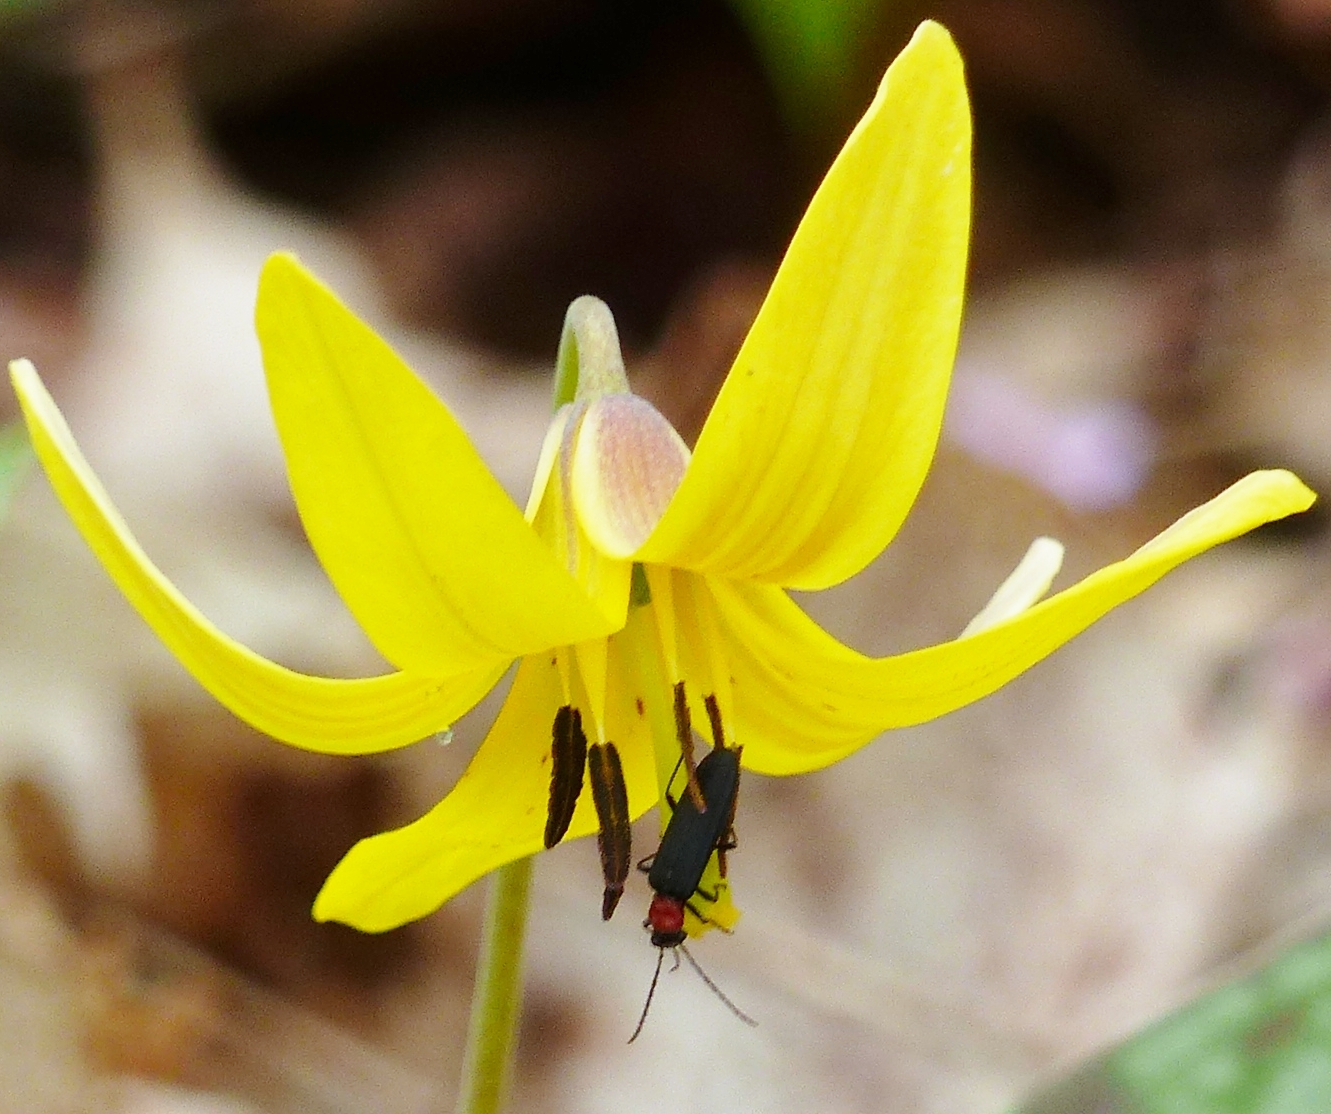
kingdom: Animalia
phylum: Arthropoda
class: Insecta
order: Coleoptera
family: Oedemeridae
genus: Ischnomera
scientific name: Ischnomera
